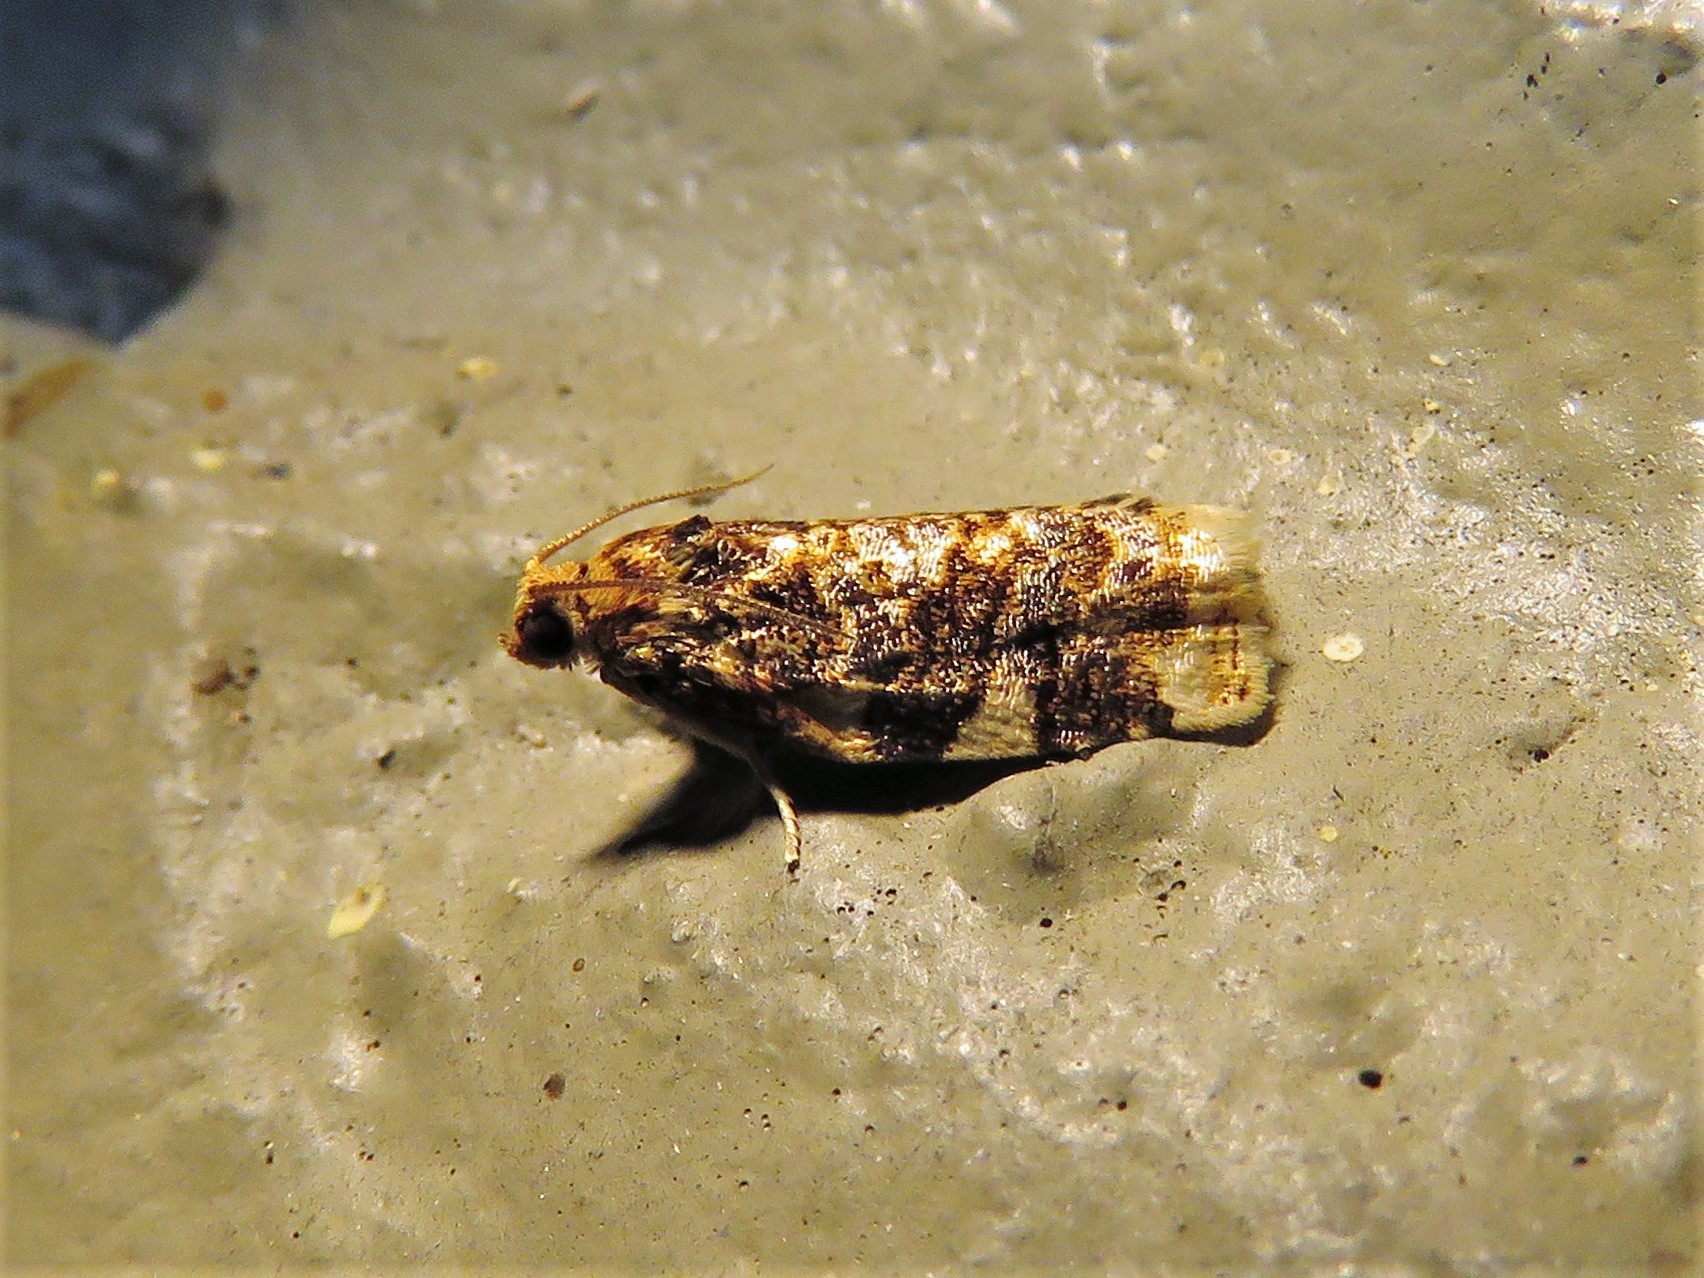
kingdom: Animalia
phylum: Arthropoda
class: Insecta
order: Lepidoptera
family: Tortricidae
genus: Archips
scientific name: Archips argyrospila
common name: Fruit-tree leafroller moth
